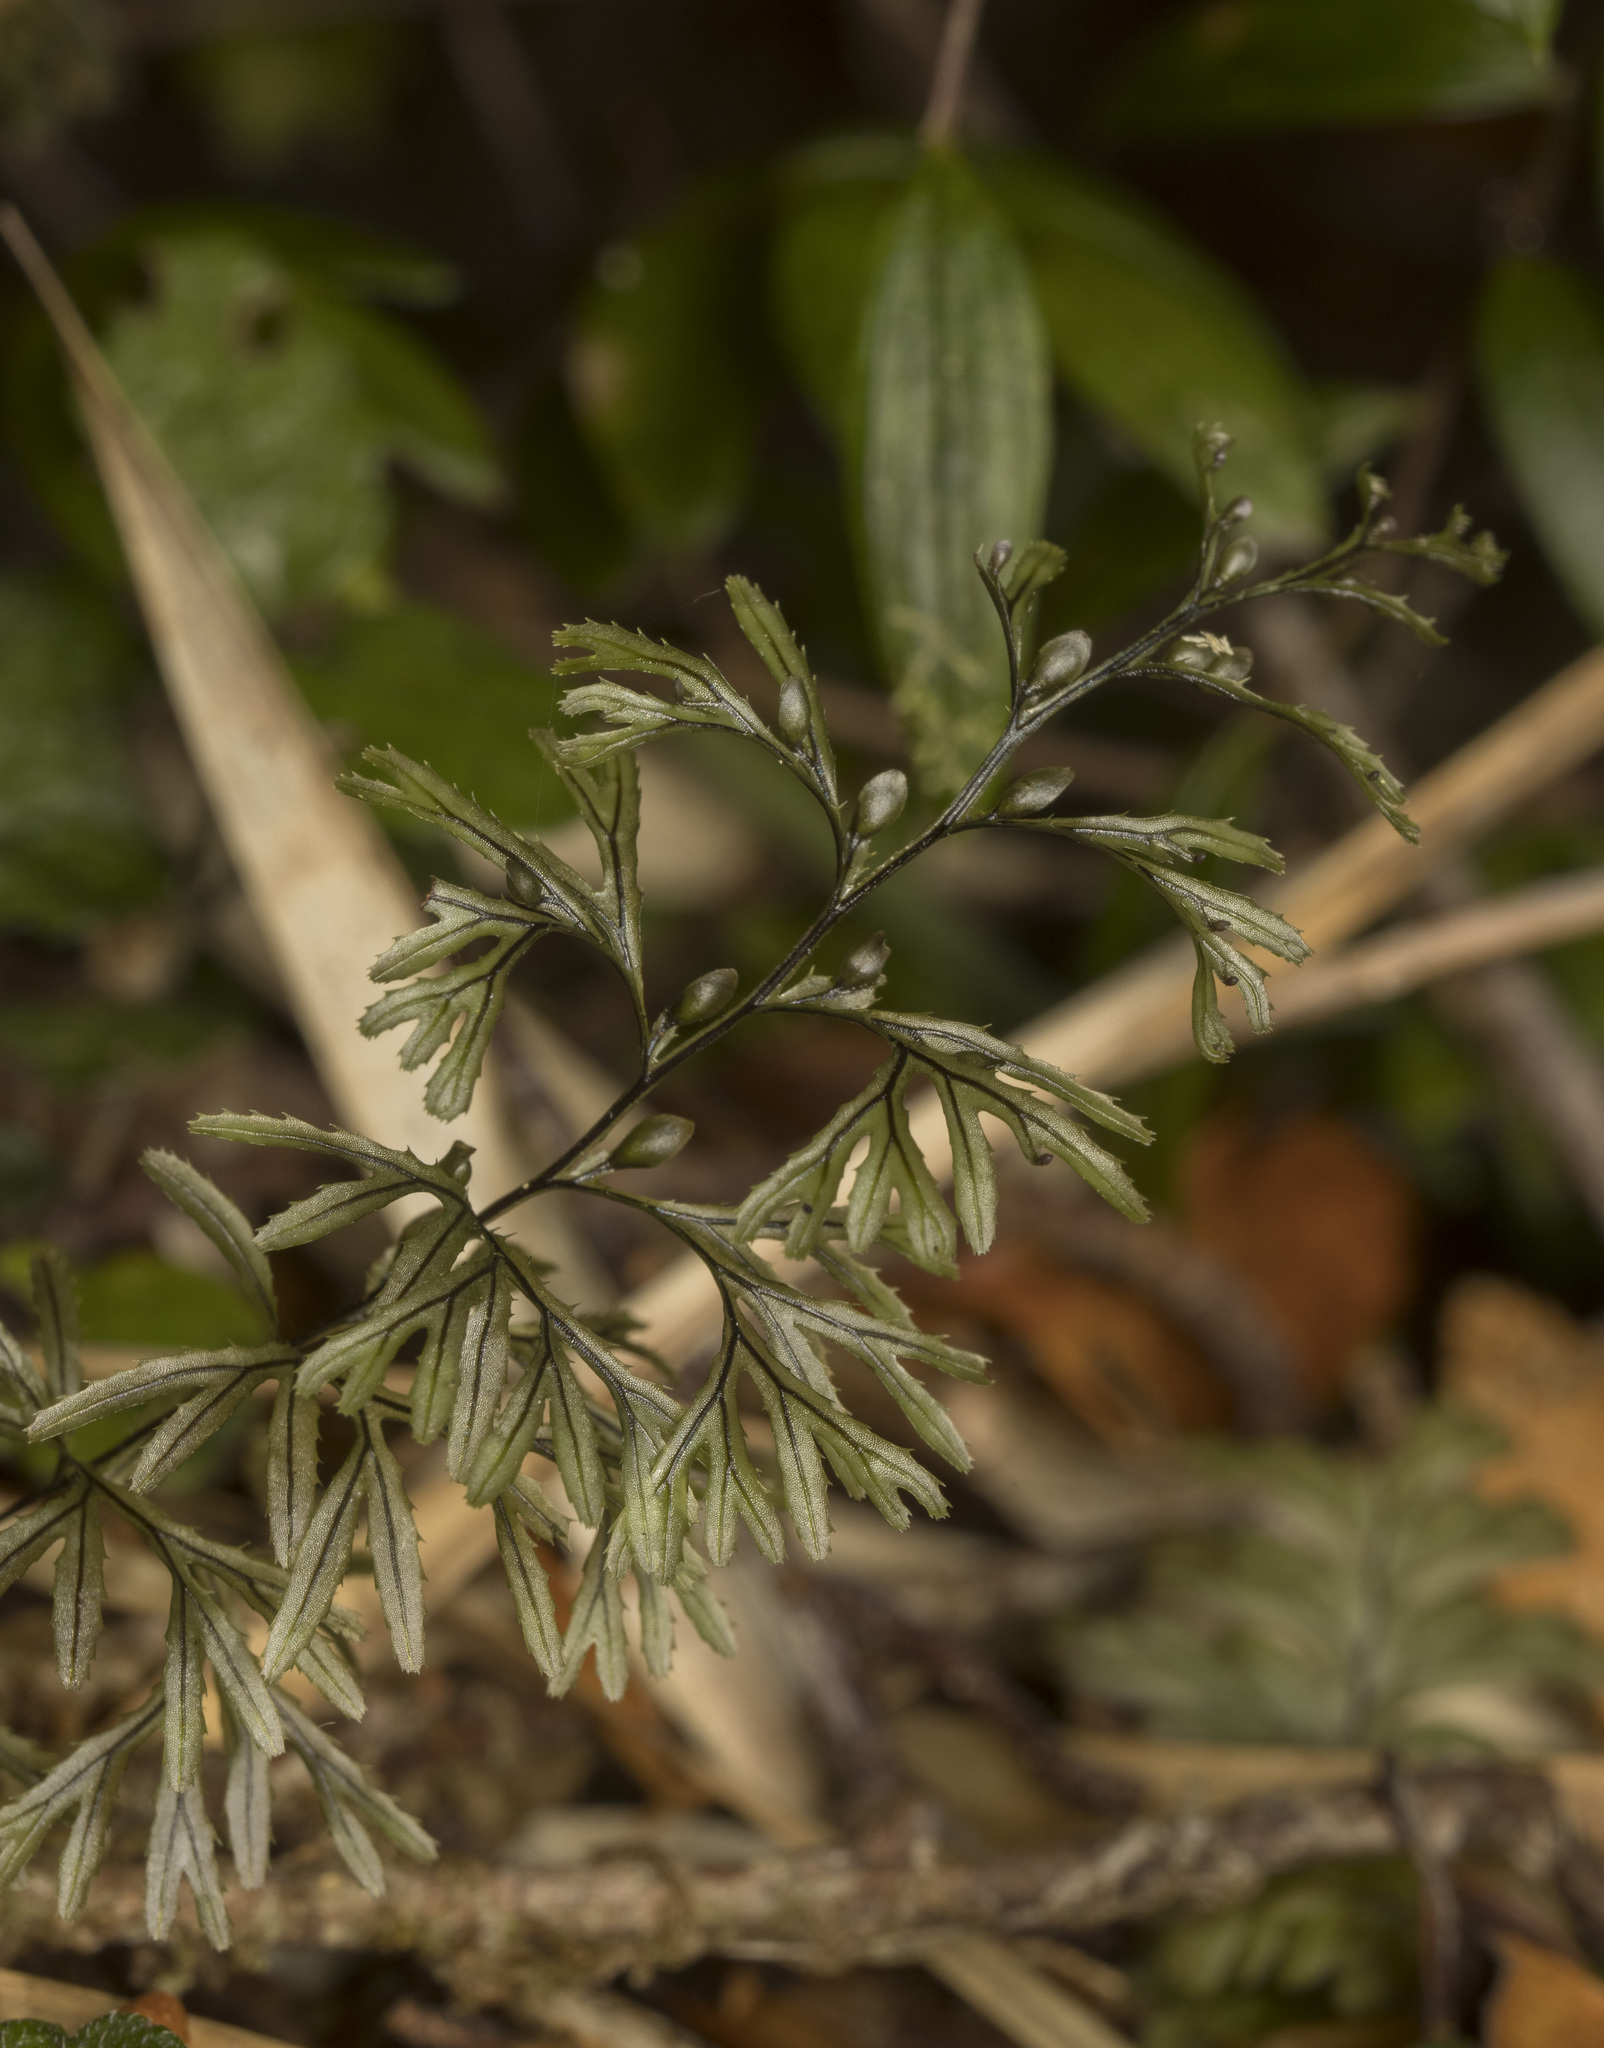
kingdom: Plantae
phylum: Tracheophyta
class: Polypodiopsida
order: Hymenophyllales
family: Hymenophyllaceae
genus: Hymenophyllum
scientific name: Hymenophyllum secundum
